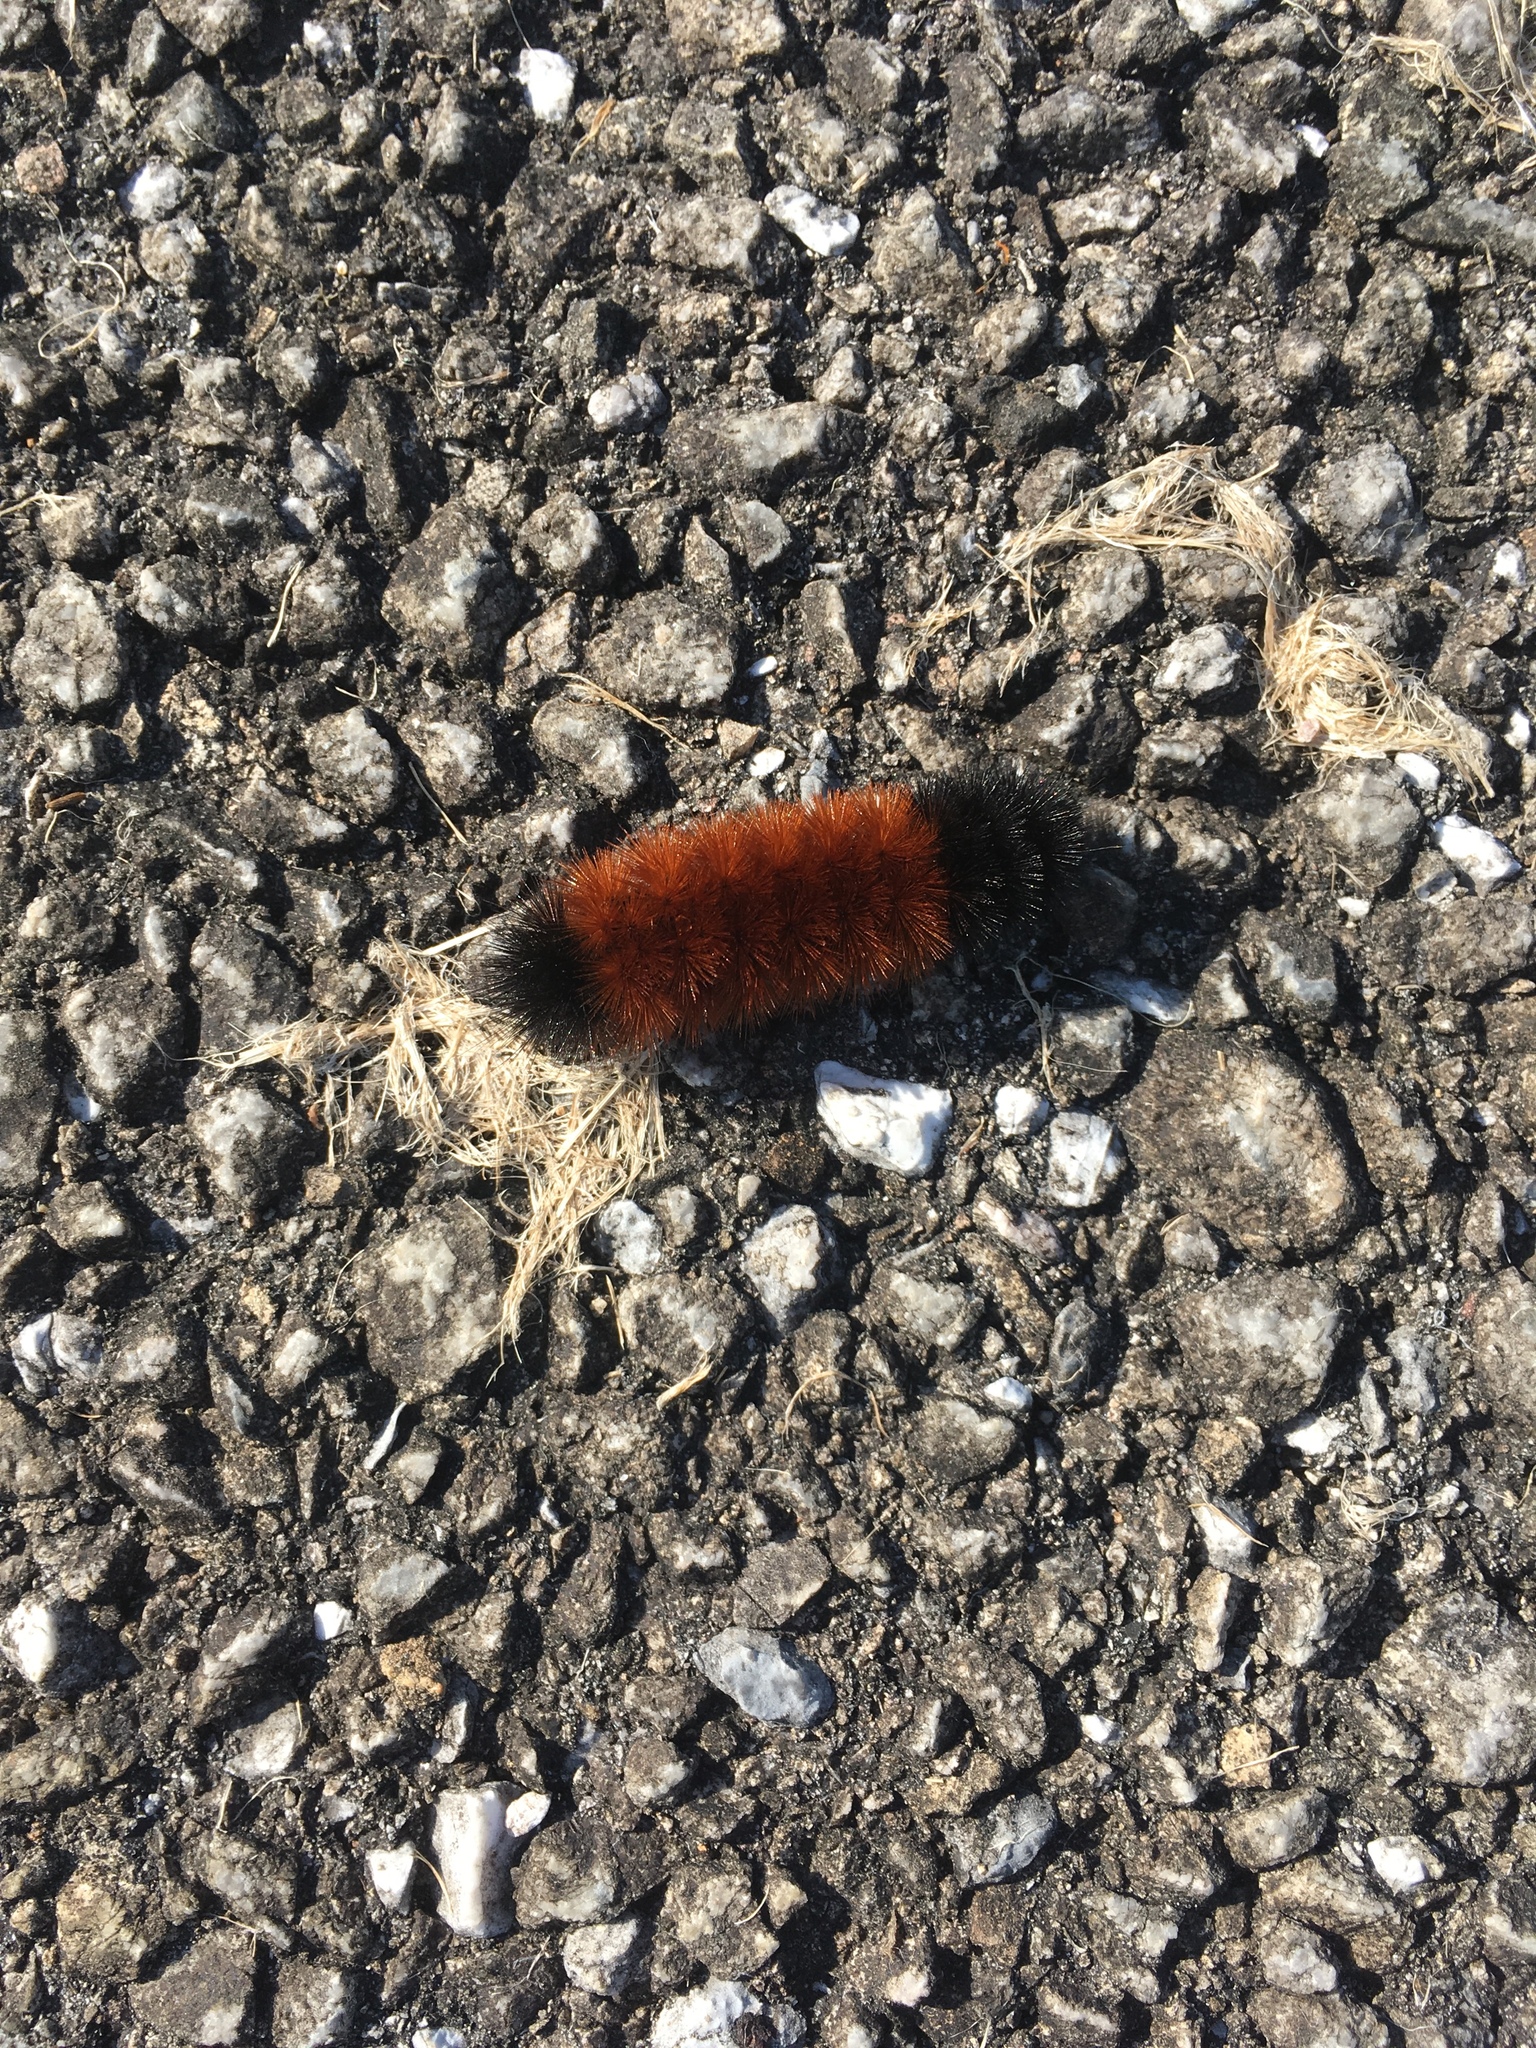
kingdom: Animalia
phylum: Arthropoda
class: Insecta
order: Lepidoptera
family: Erebidae
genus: Pyrrharctia
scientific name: Pyrrharctia isabella
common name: Isabella tiger moth
